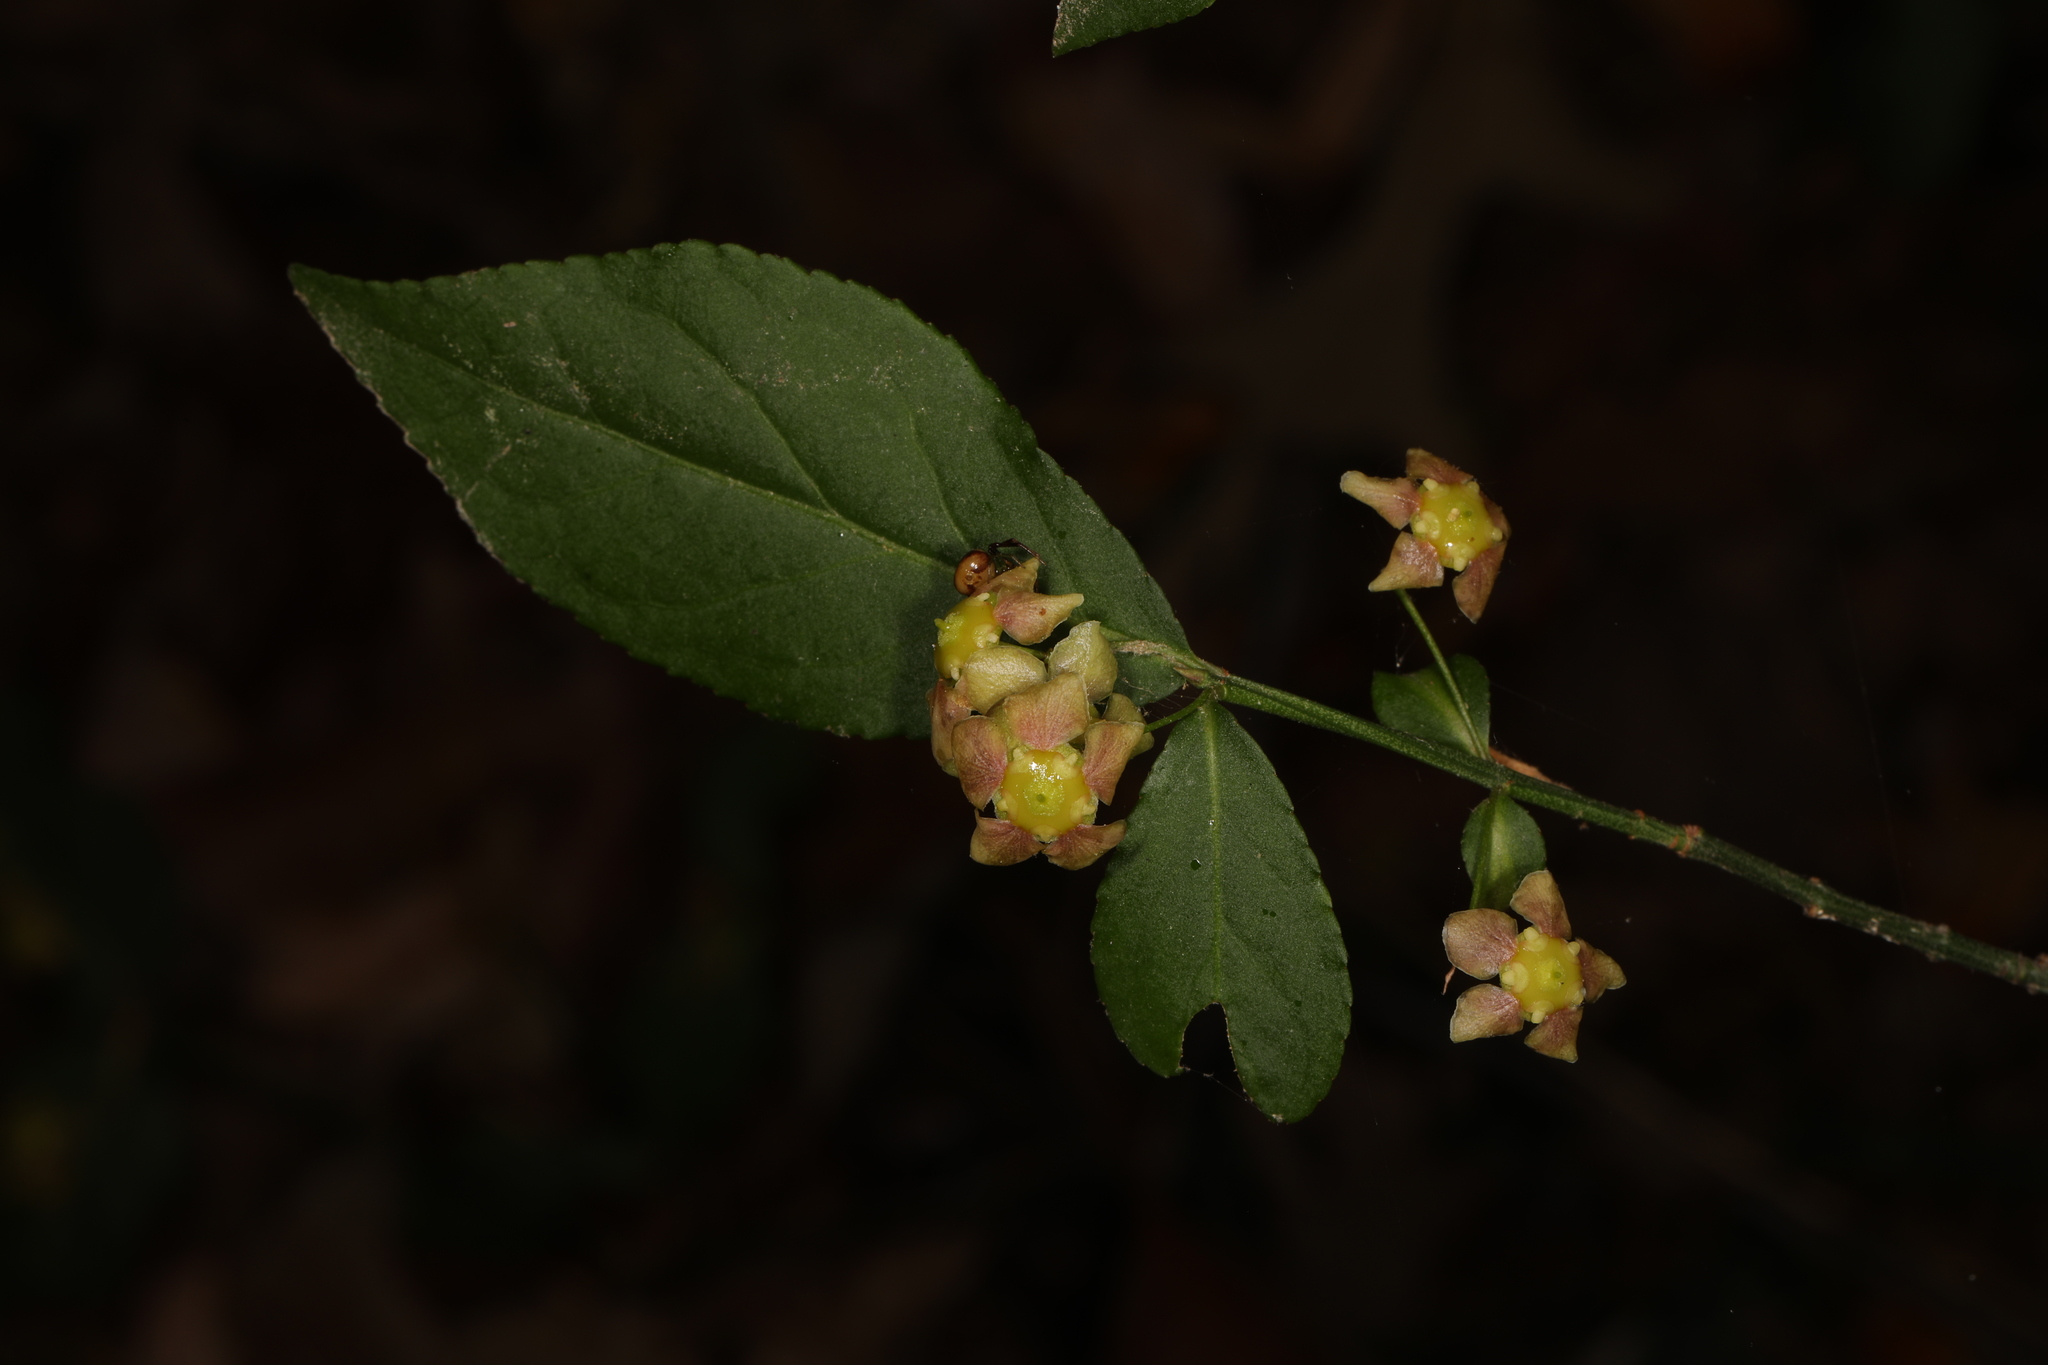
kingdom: Plantae
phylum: Tracheophyta
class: Magnoliopsida
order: Celastrales
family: Celastraceae
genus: Euonymus
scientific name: Euonymus americanus
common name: Bursting-heart
